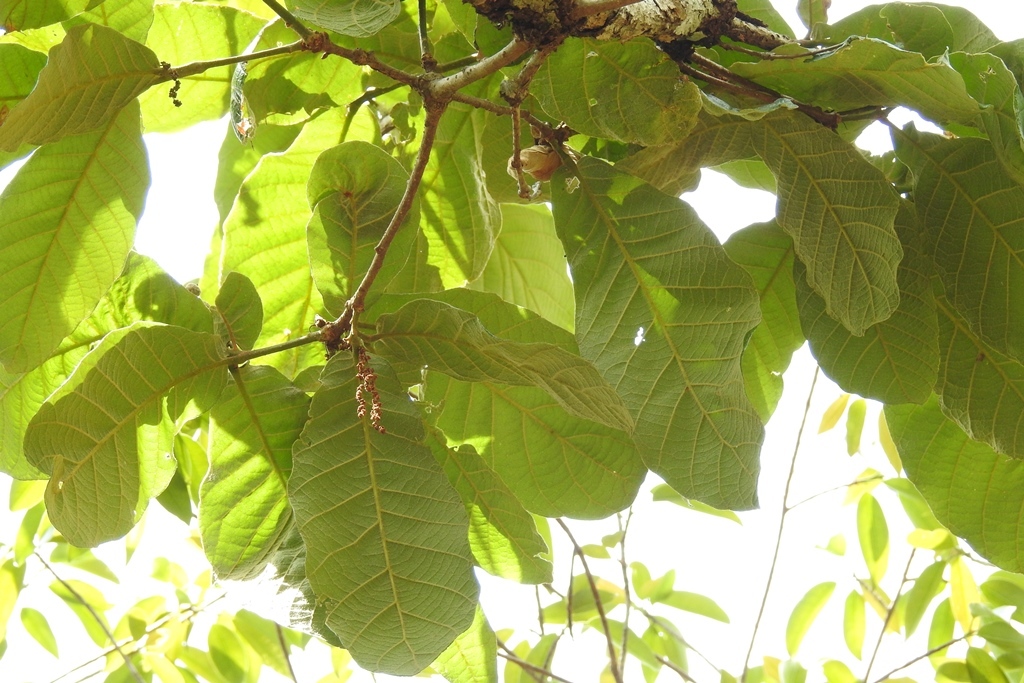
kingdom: Plantae
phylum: Tracheophyta
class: Magnoliopsida
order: Fagales
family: Fagaceae
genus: Quercus
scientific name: Quercus purulhana
